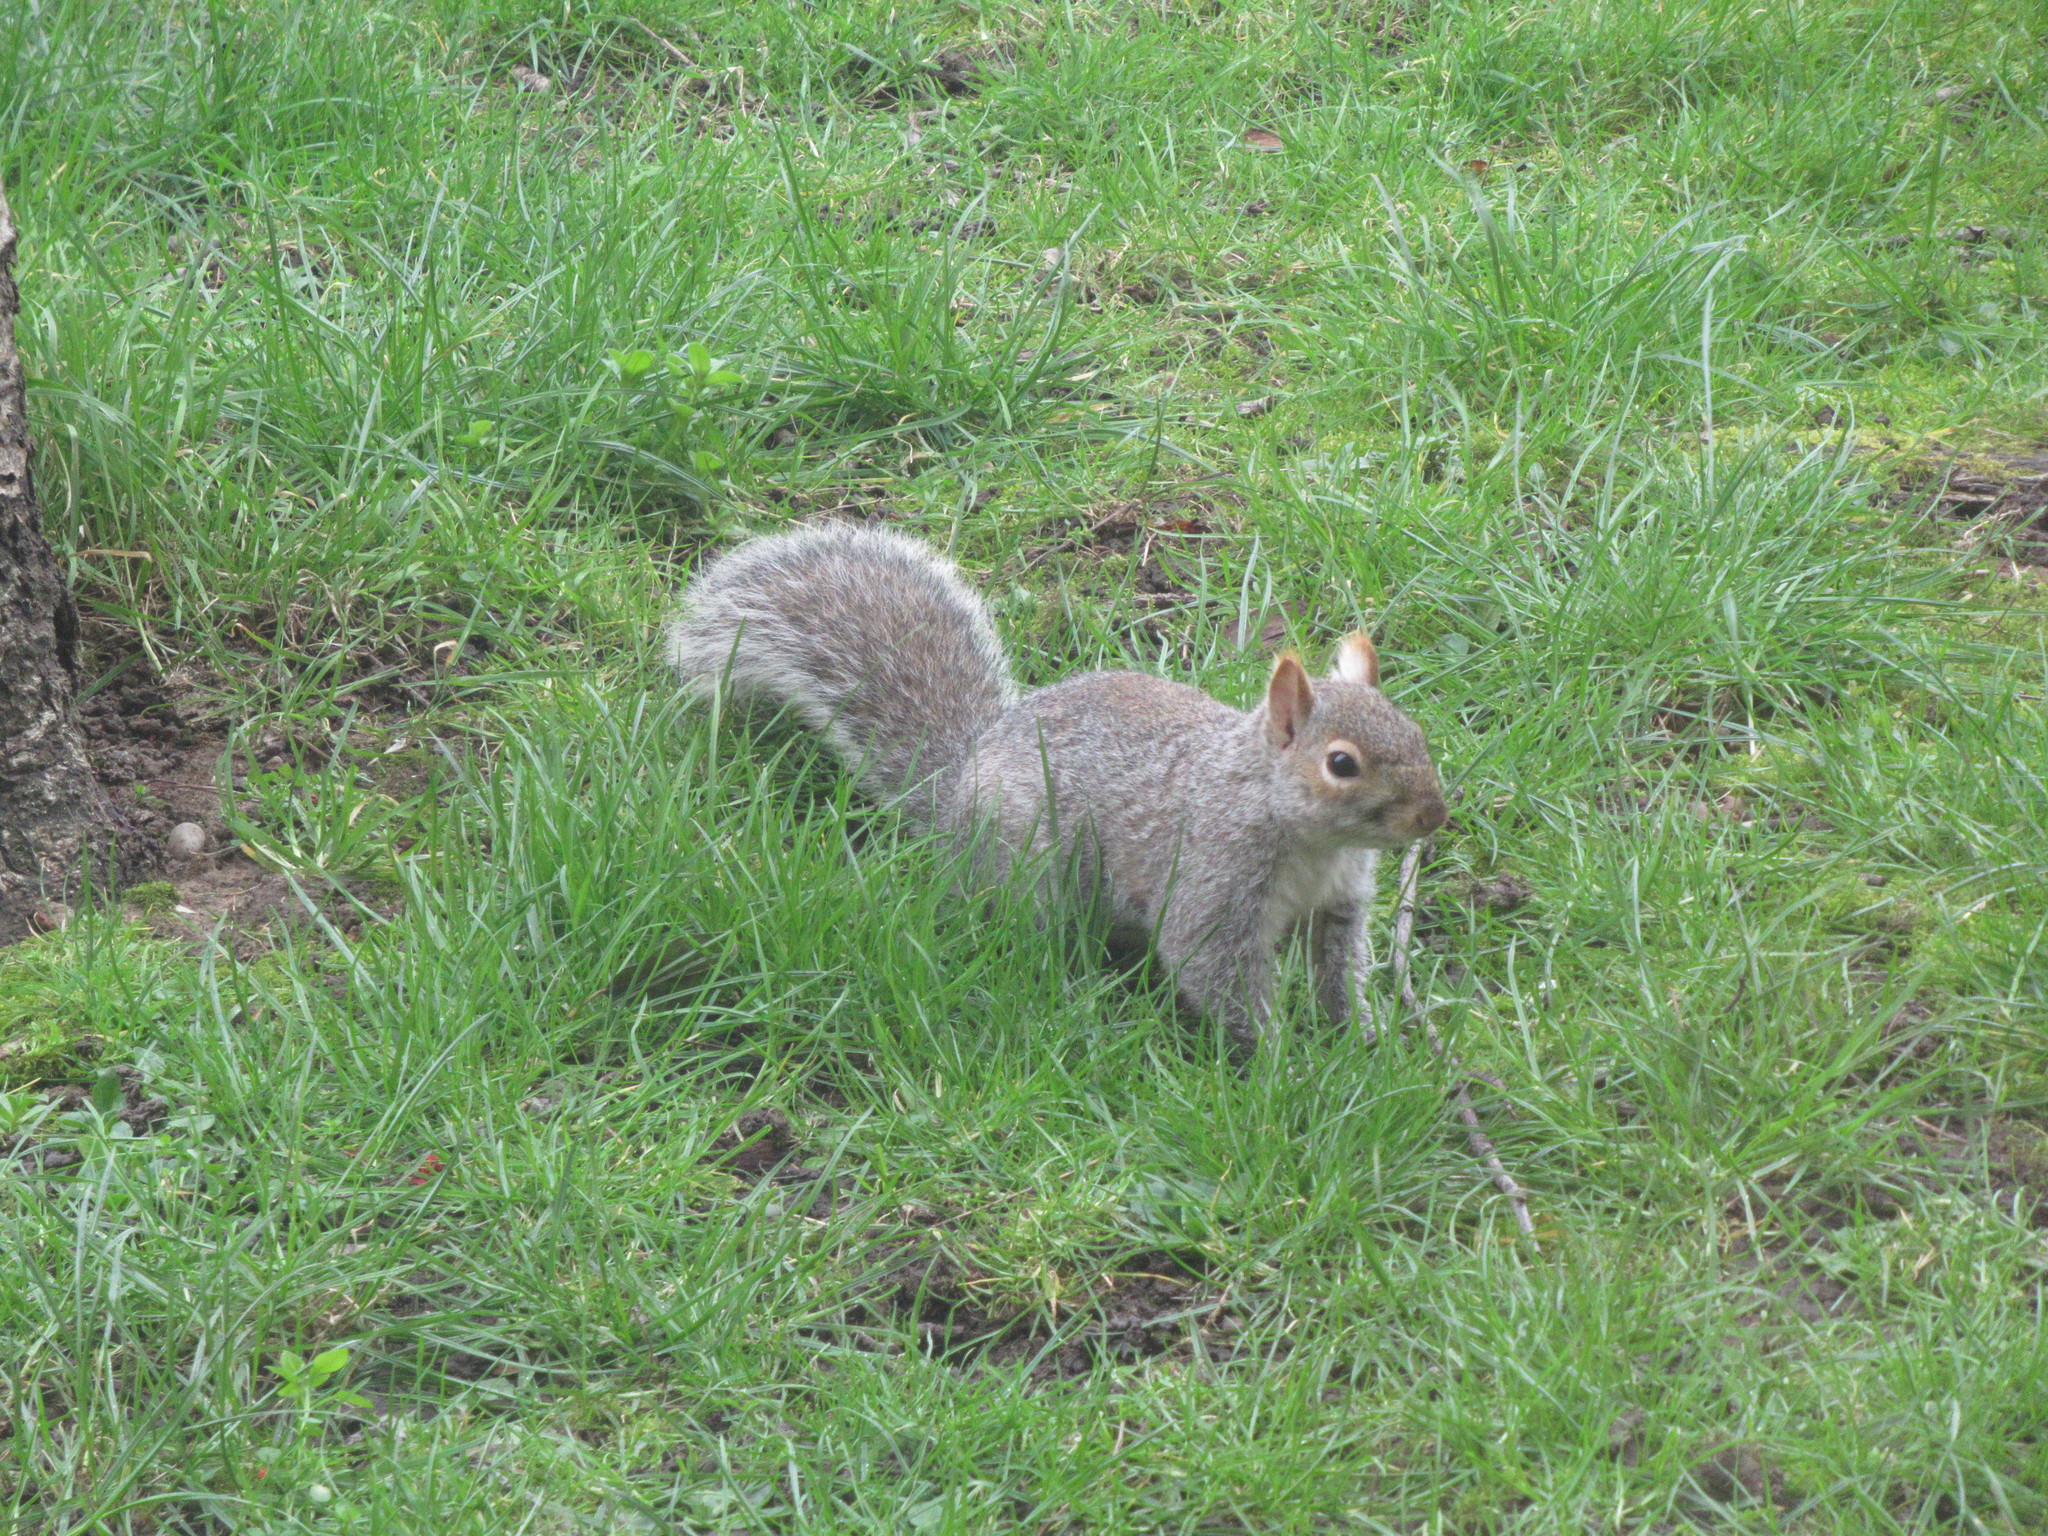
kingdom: Animalia
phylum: Chordata
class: Mammalia
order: Rodentia
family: Sciuridae
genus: Sciurus
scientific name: Sciurus carolinensis
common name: Eastern gray squirrel
